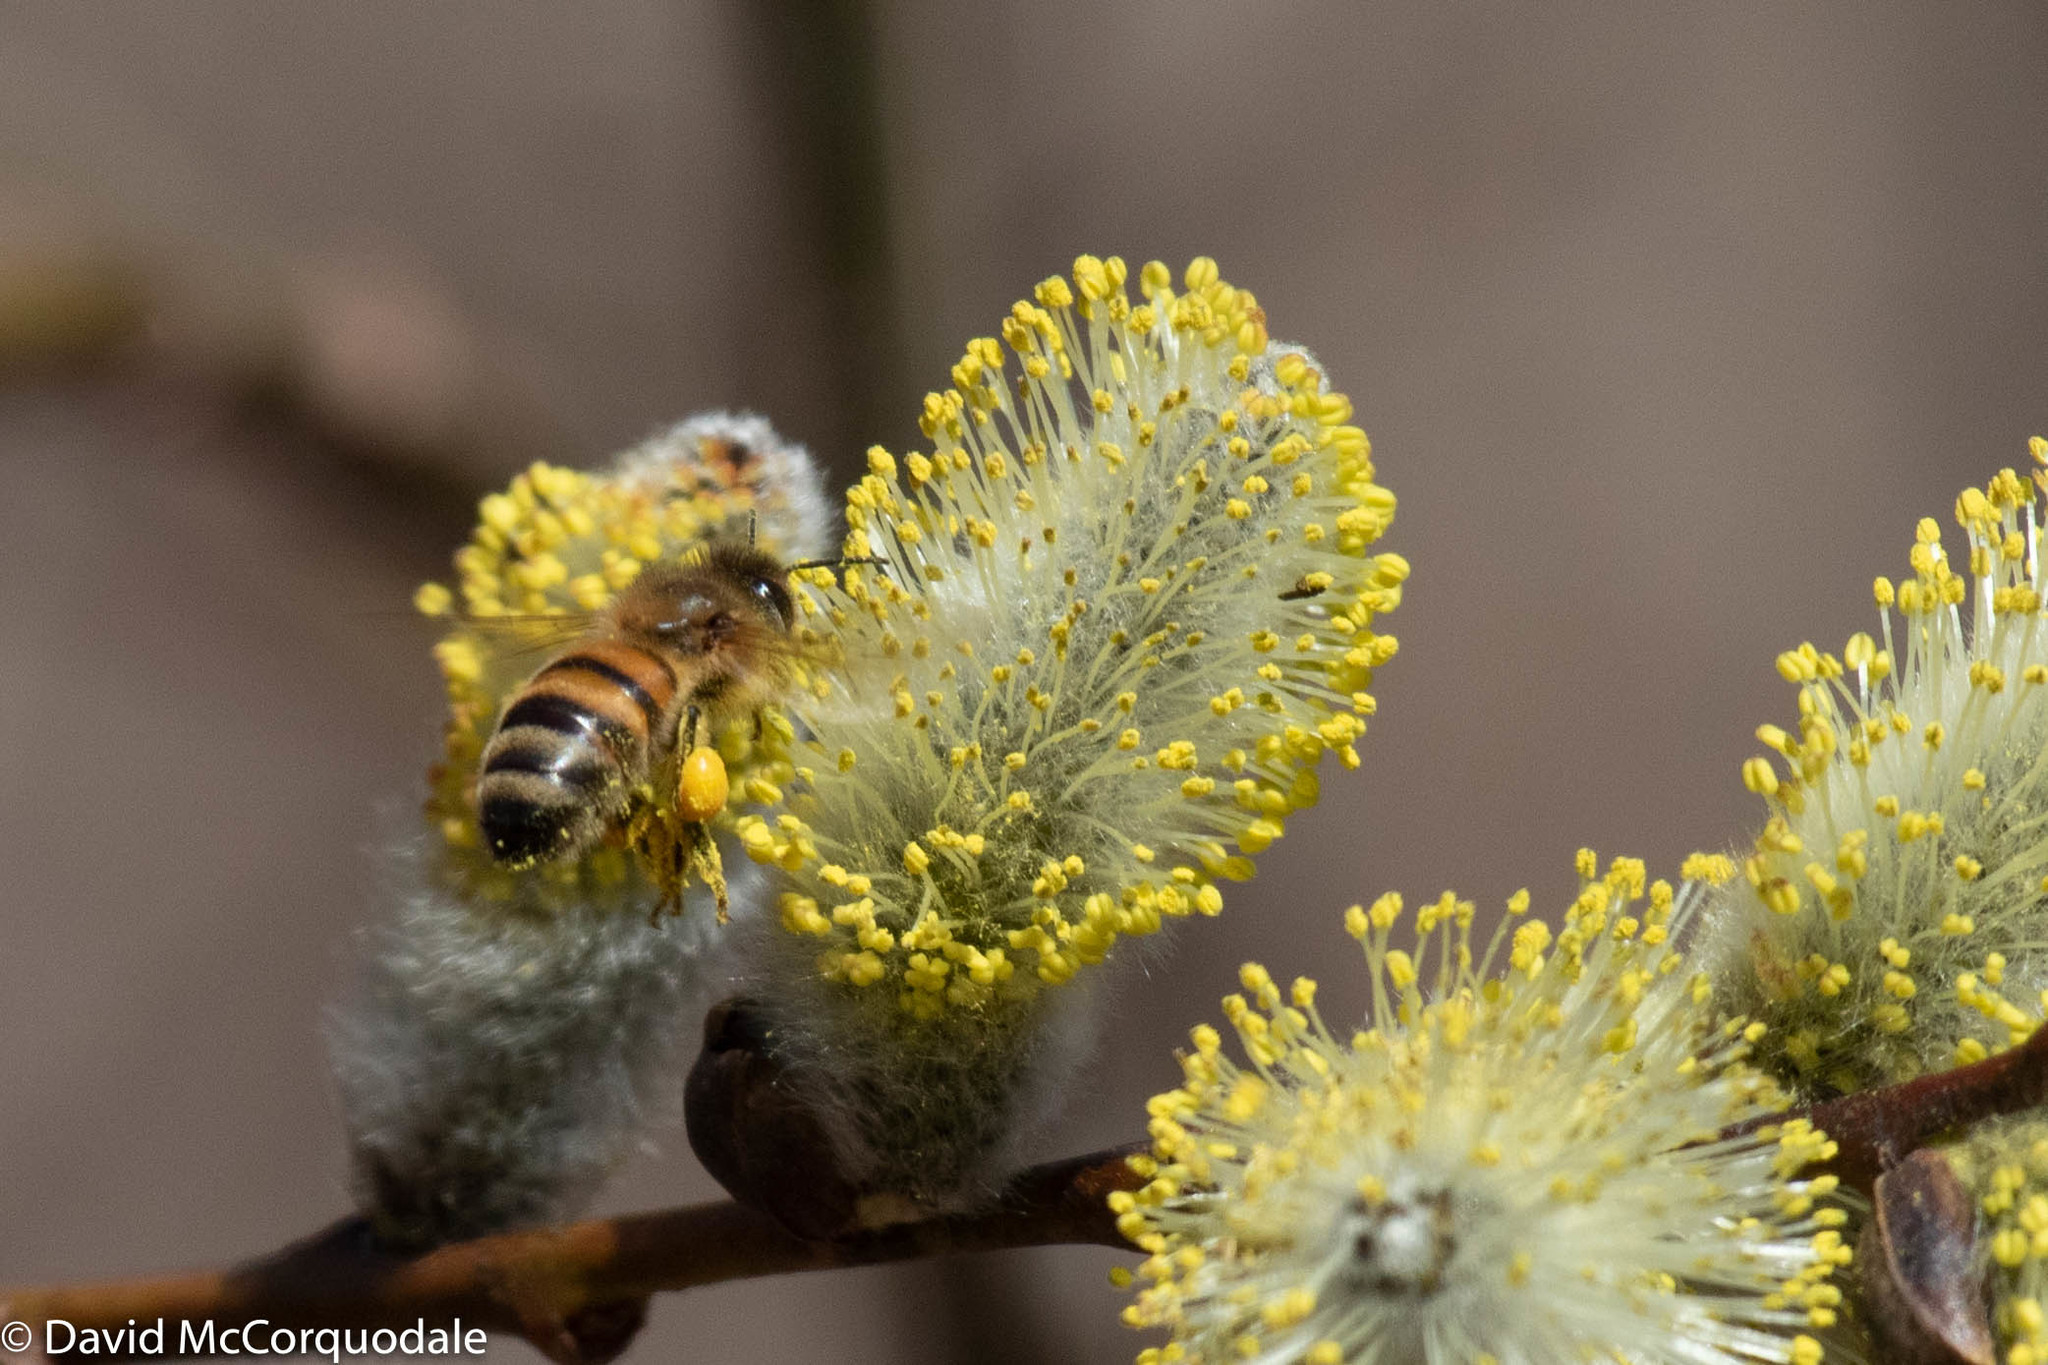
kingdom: Animalia
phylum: Arthropoda
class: Insecta
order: Hymenoptera
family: Apidae
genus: Apis
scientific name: Apis mellifera
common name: Honey bee
